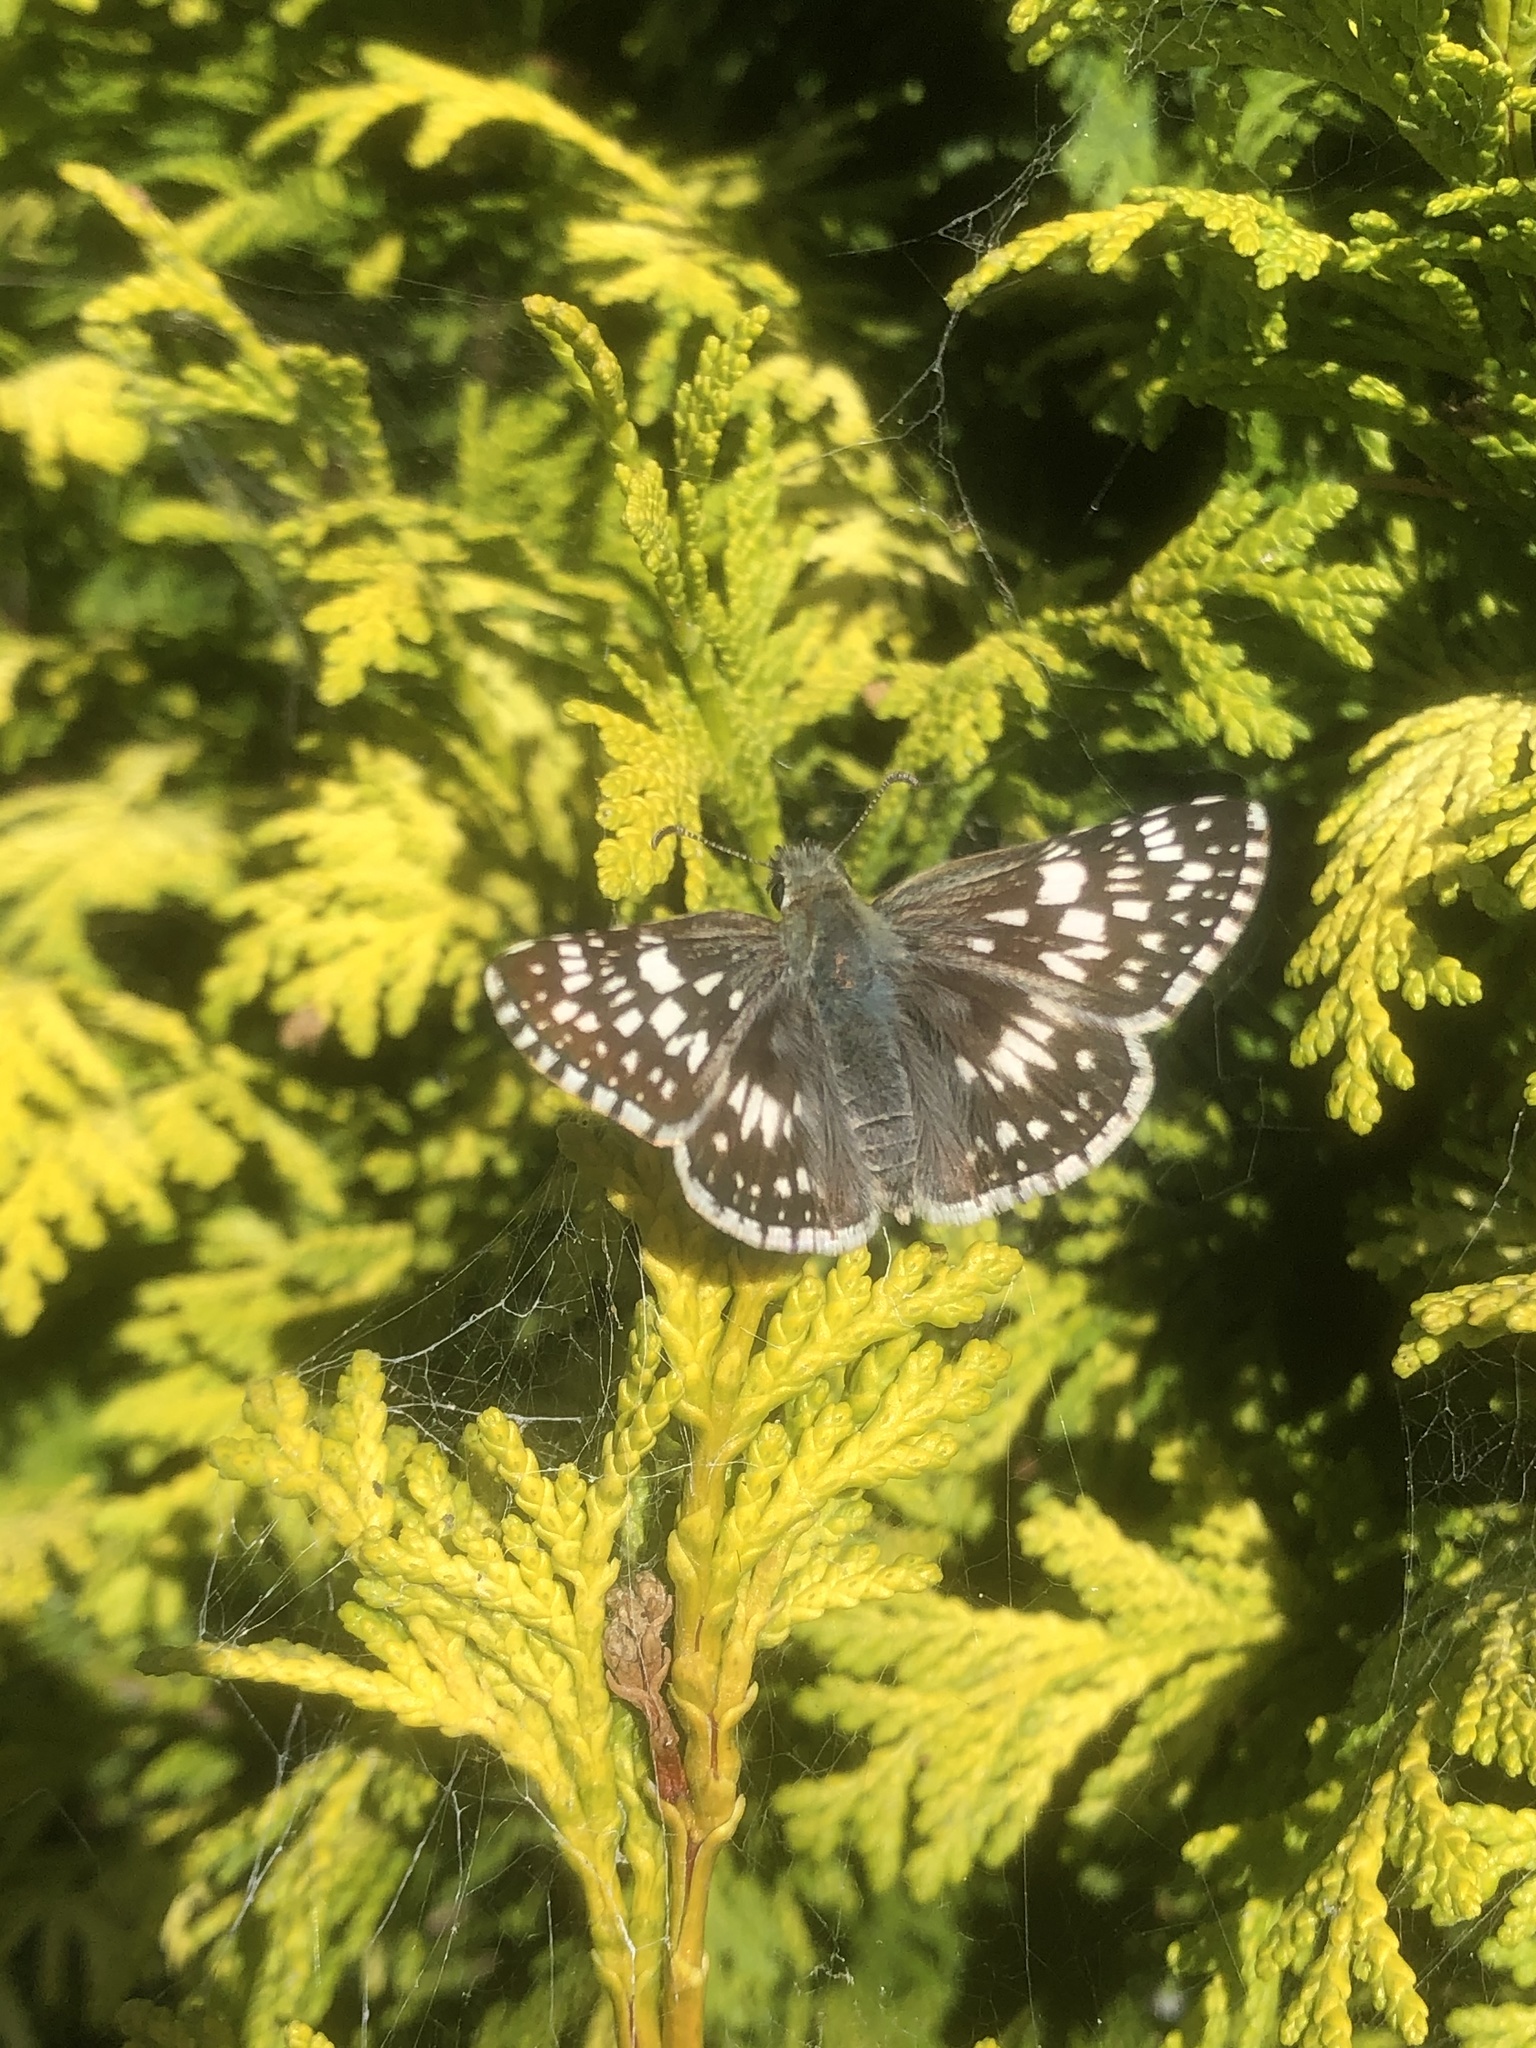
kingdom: Animalia
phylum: Arthropoda
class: Insecta
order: Lepidoptera
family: Hesperiidae
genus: Burnsius
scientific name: Burnsius communis
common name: Common checkered-skipper
